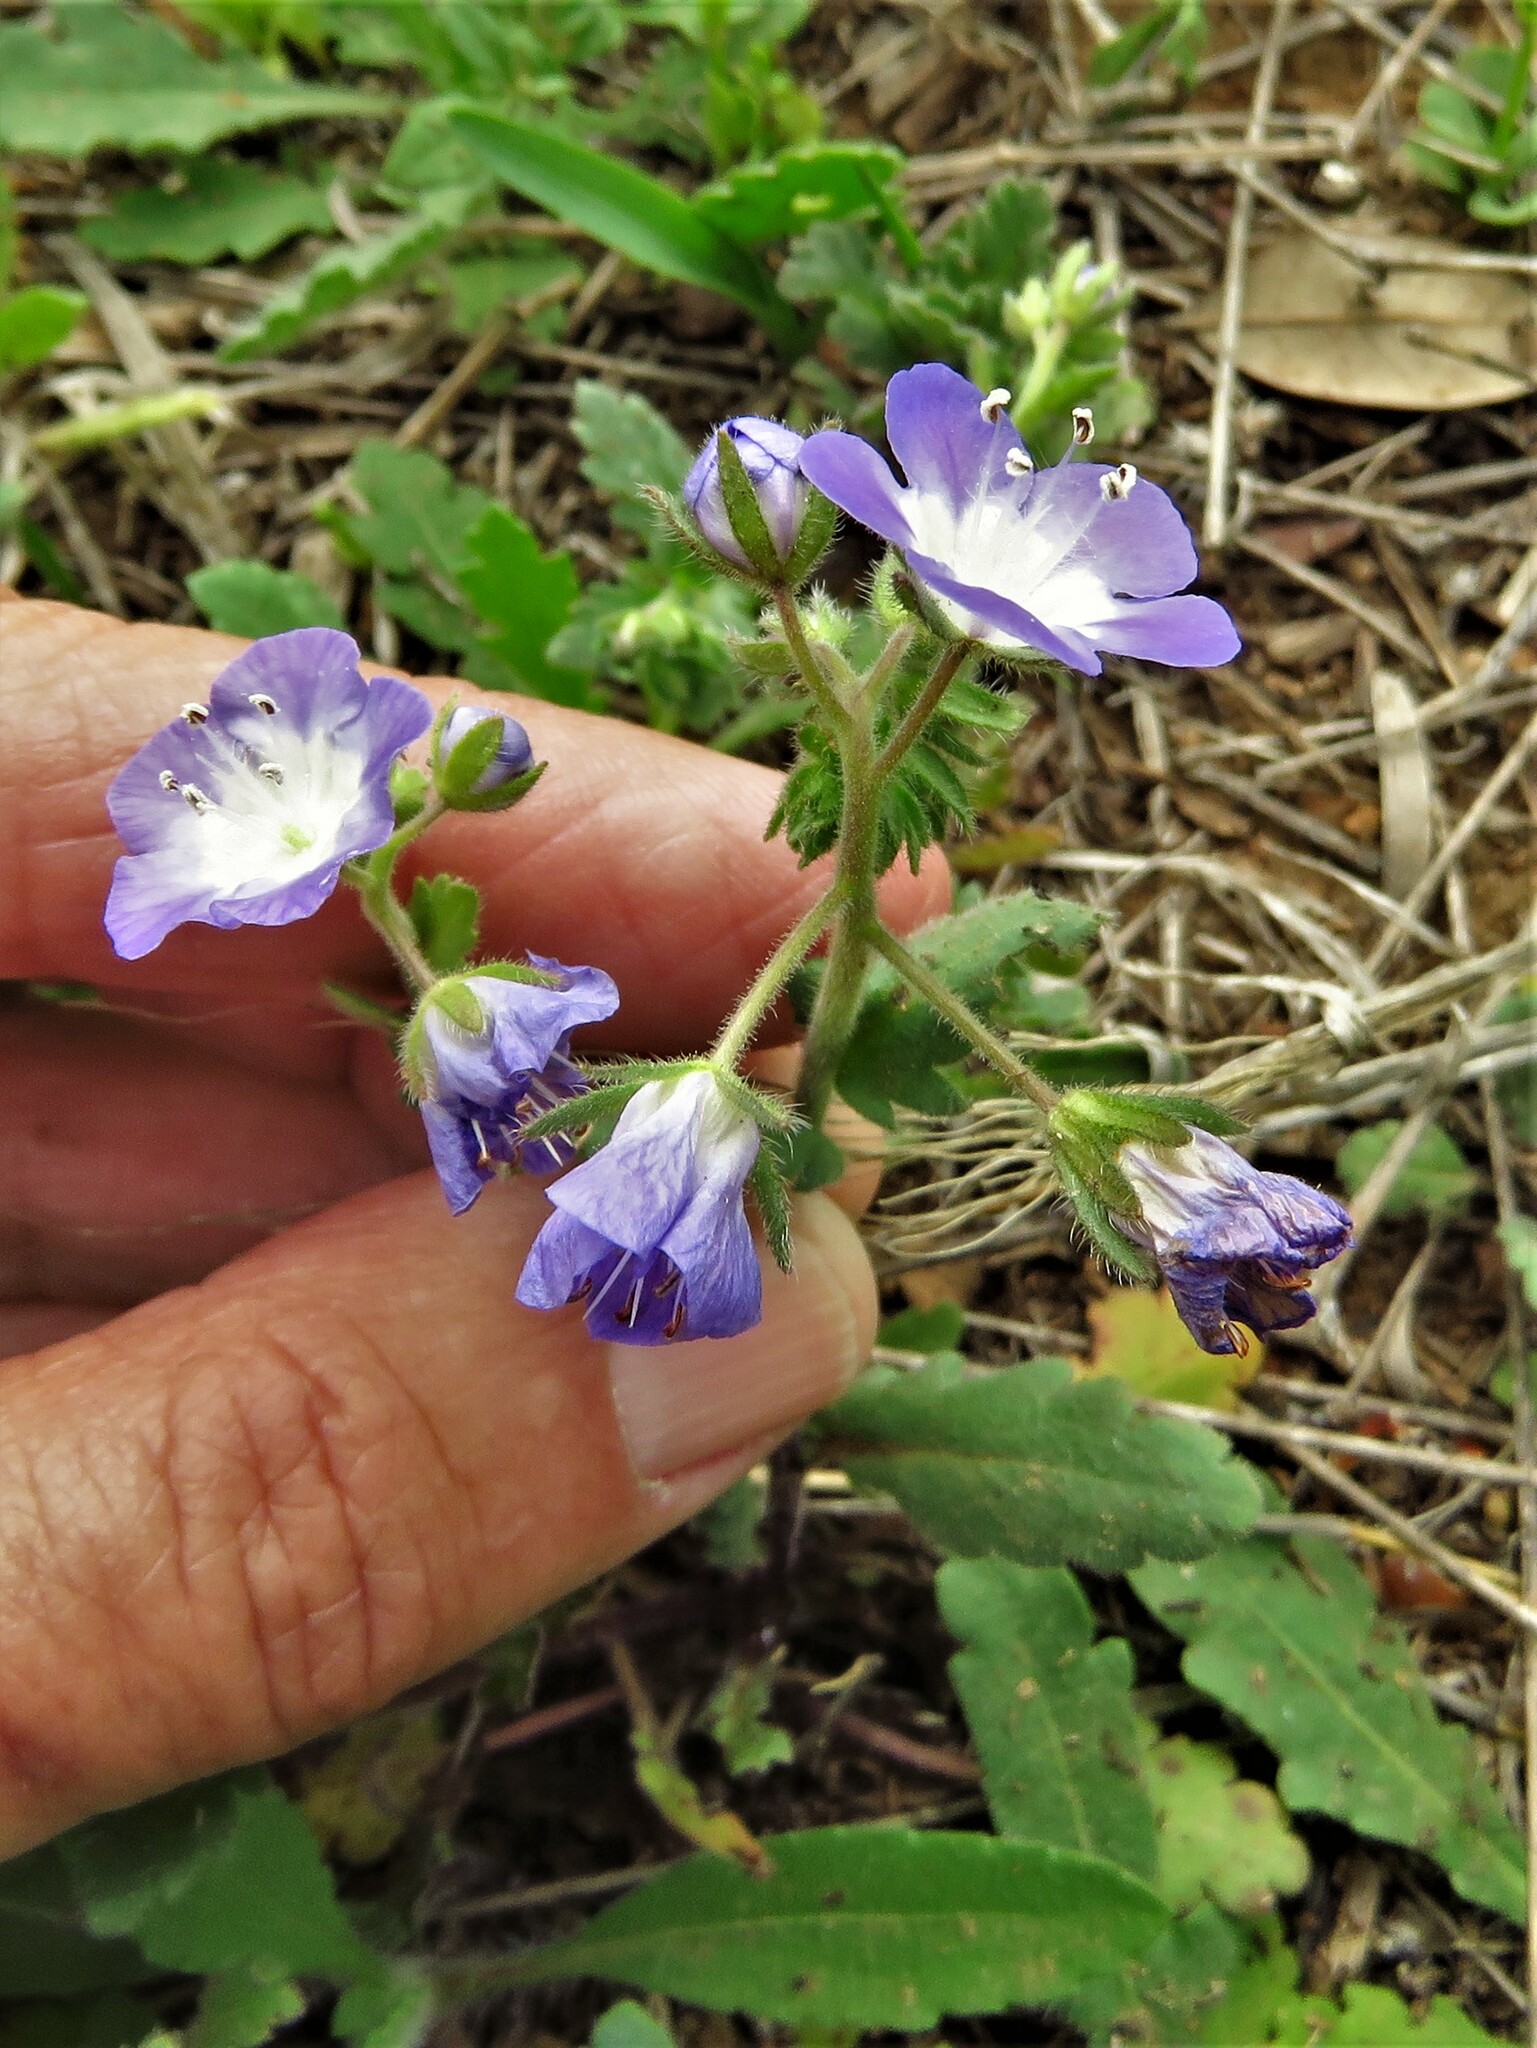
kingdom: Plantae
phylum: Tracheophyta
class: Magnoliopsida
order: Boraginales
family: Hydrophyllaceae
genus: Phacelia
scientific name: Phacelia patuliflora
